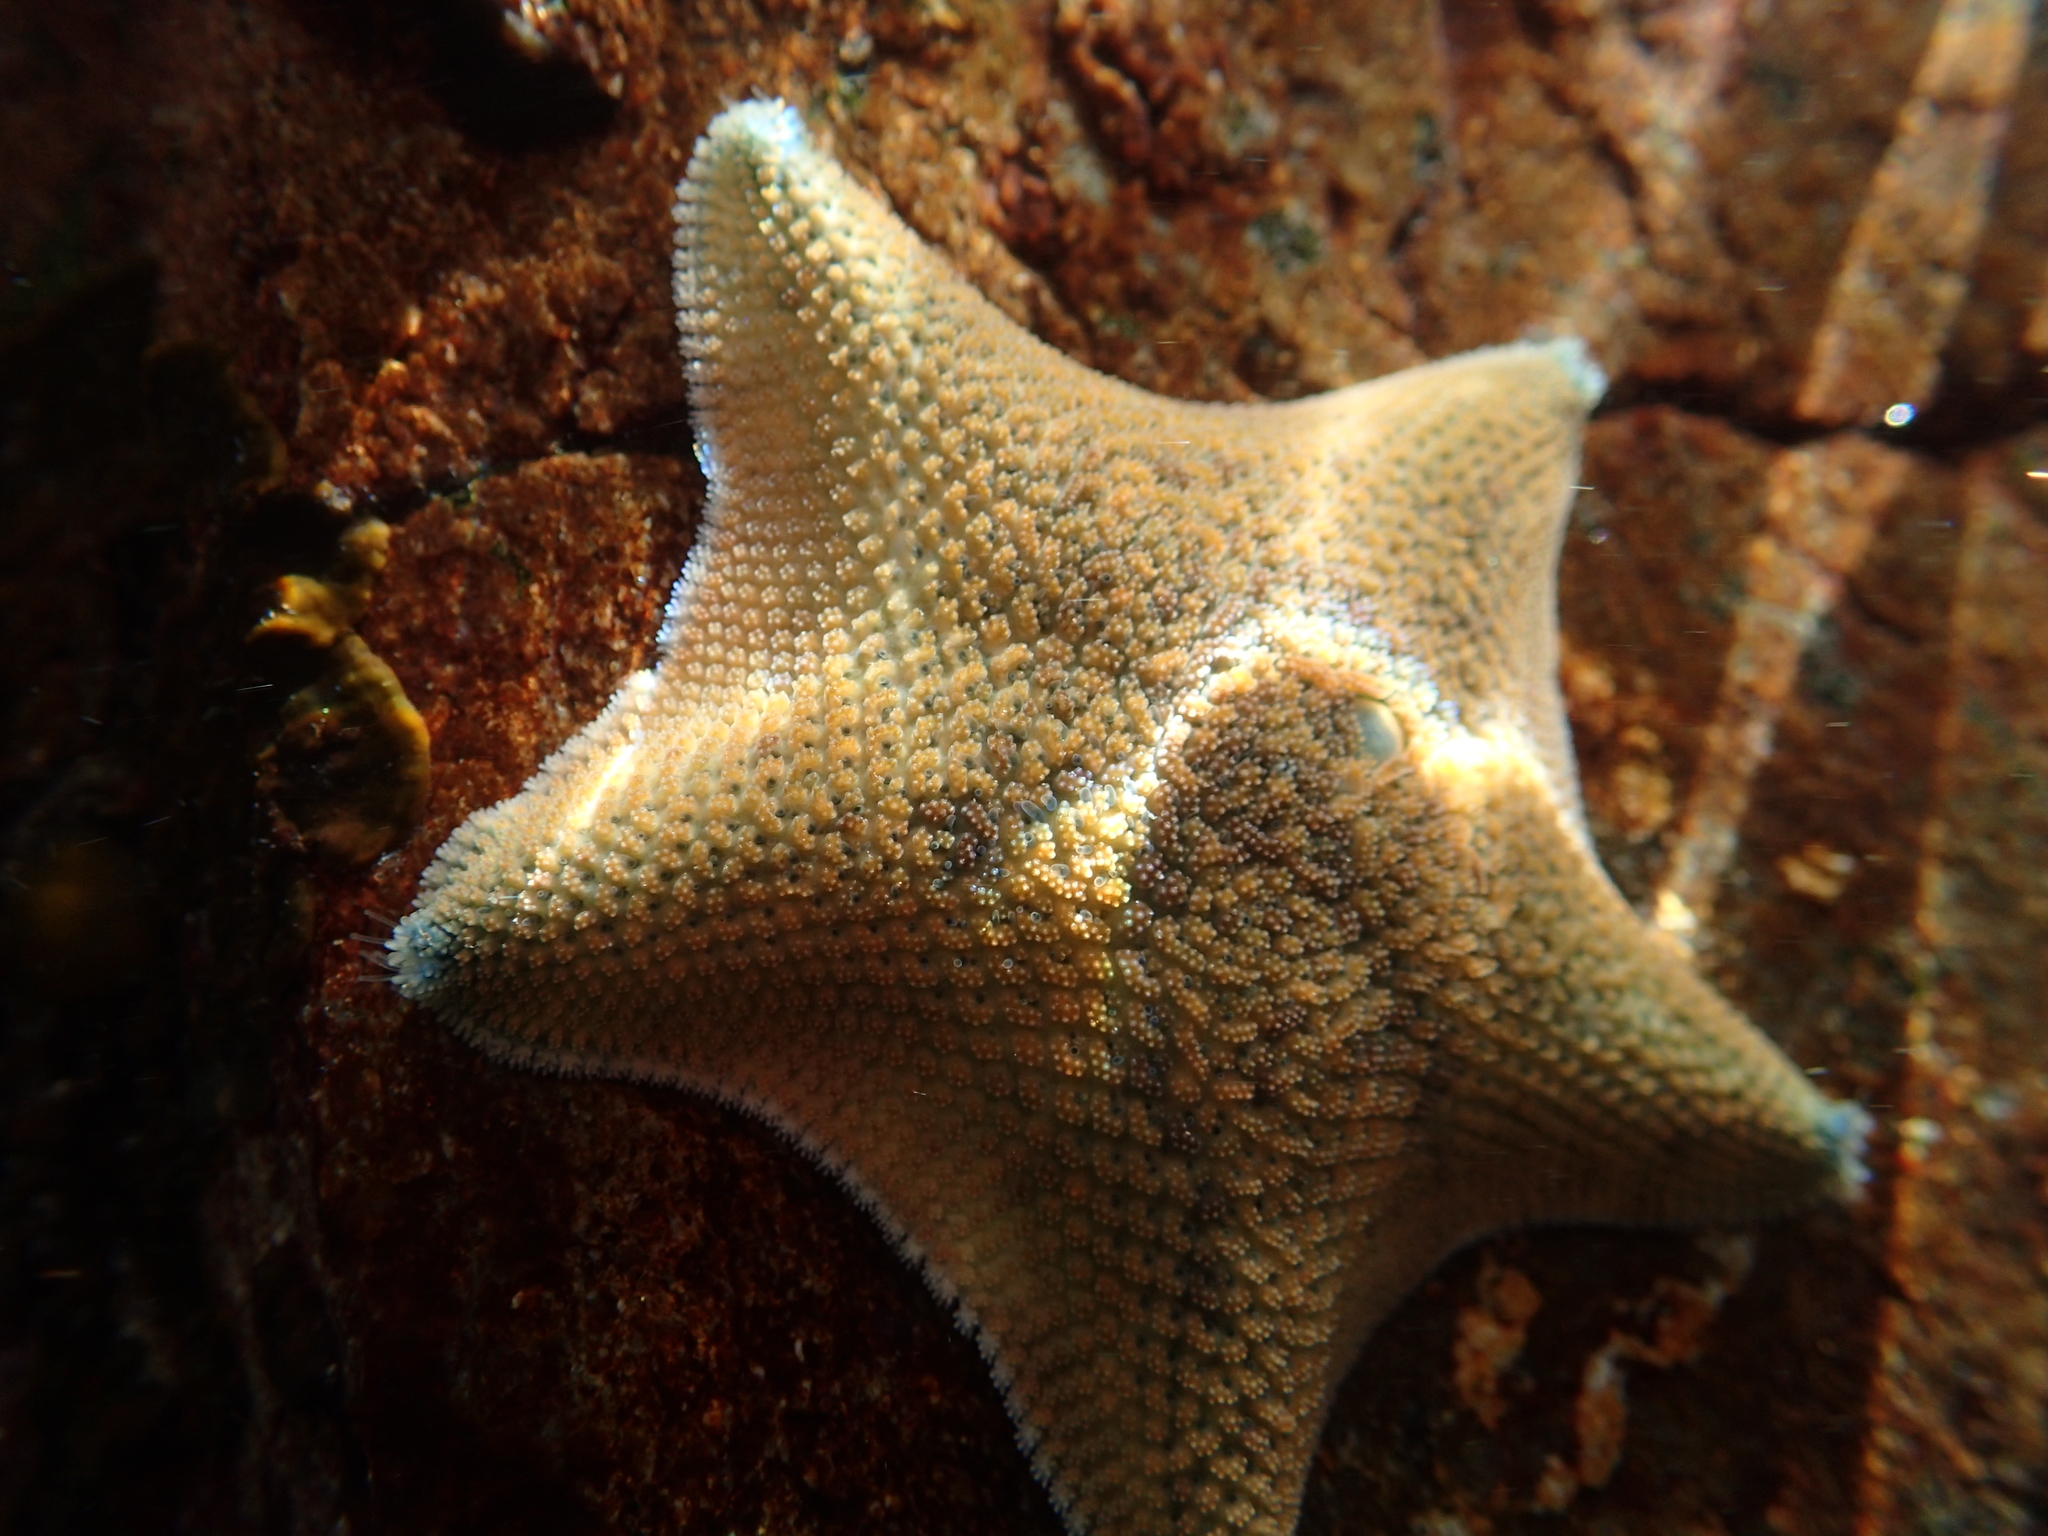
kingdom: Animalia
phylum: Echinodermata
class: Asteroidea
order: Valvatida
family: Asterinidae
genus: Patiriella
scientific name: Patiriella regularis
